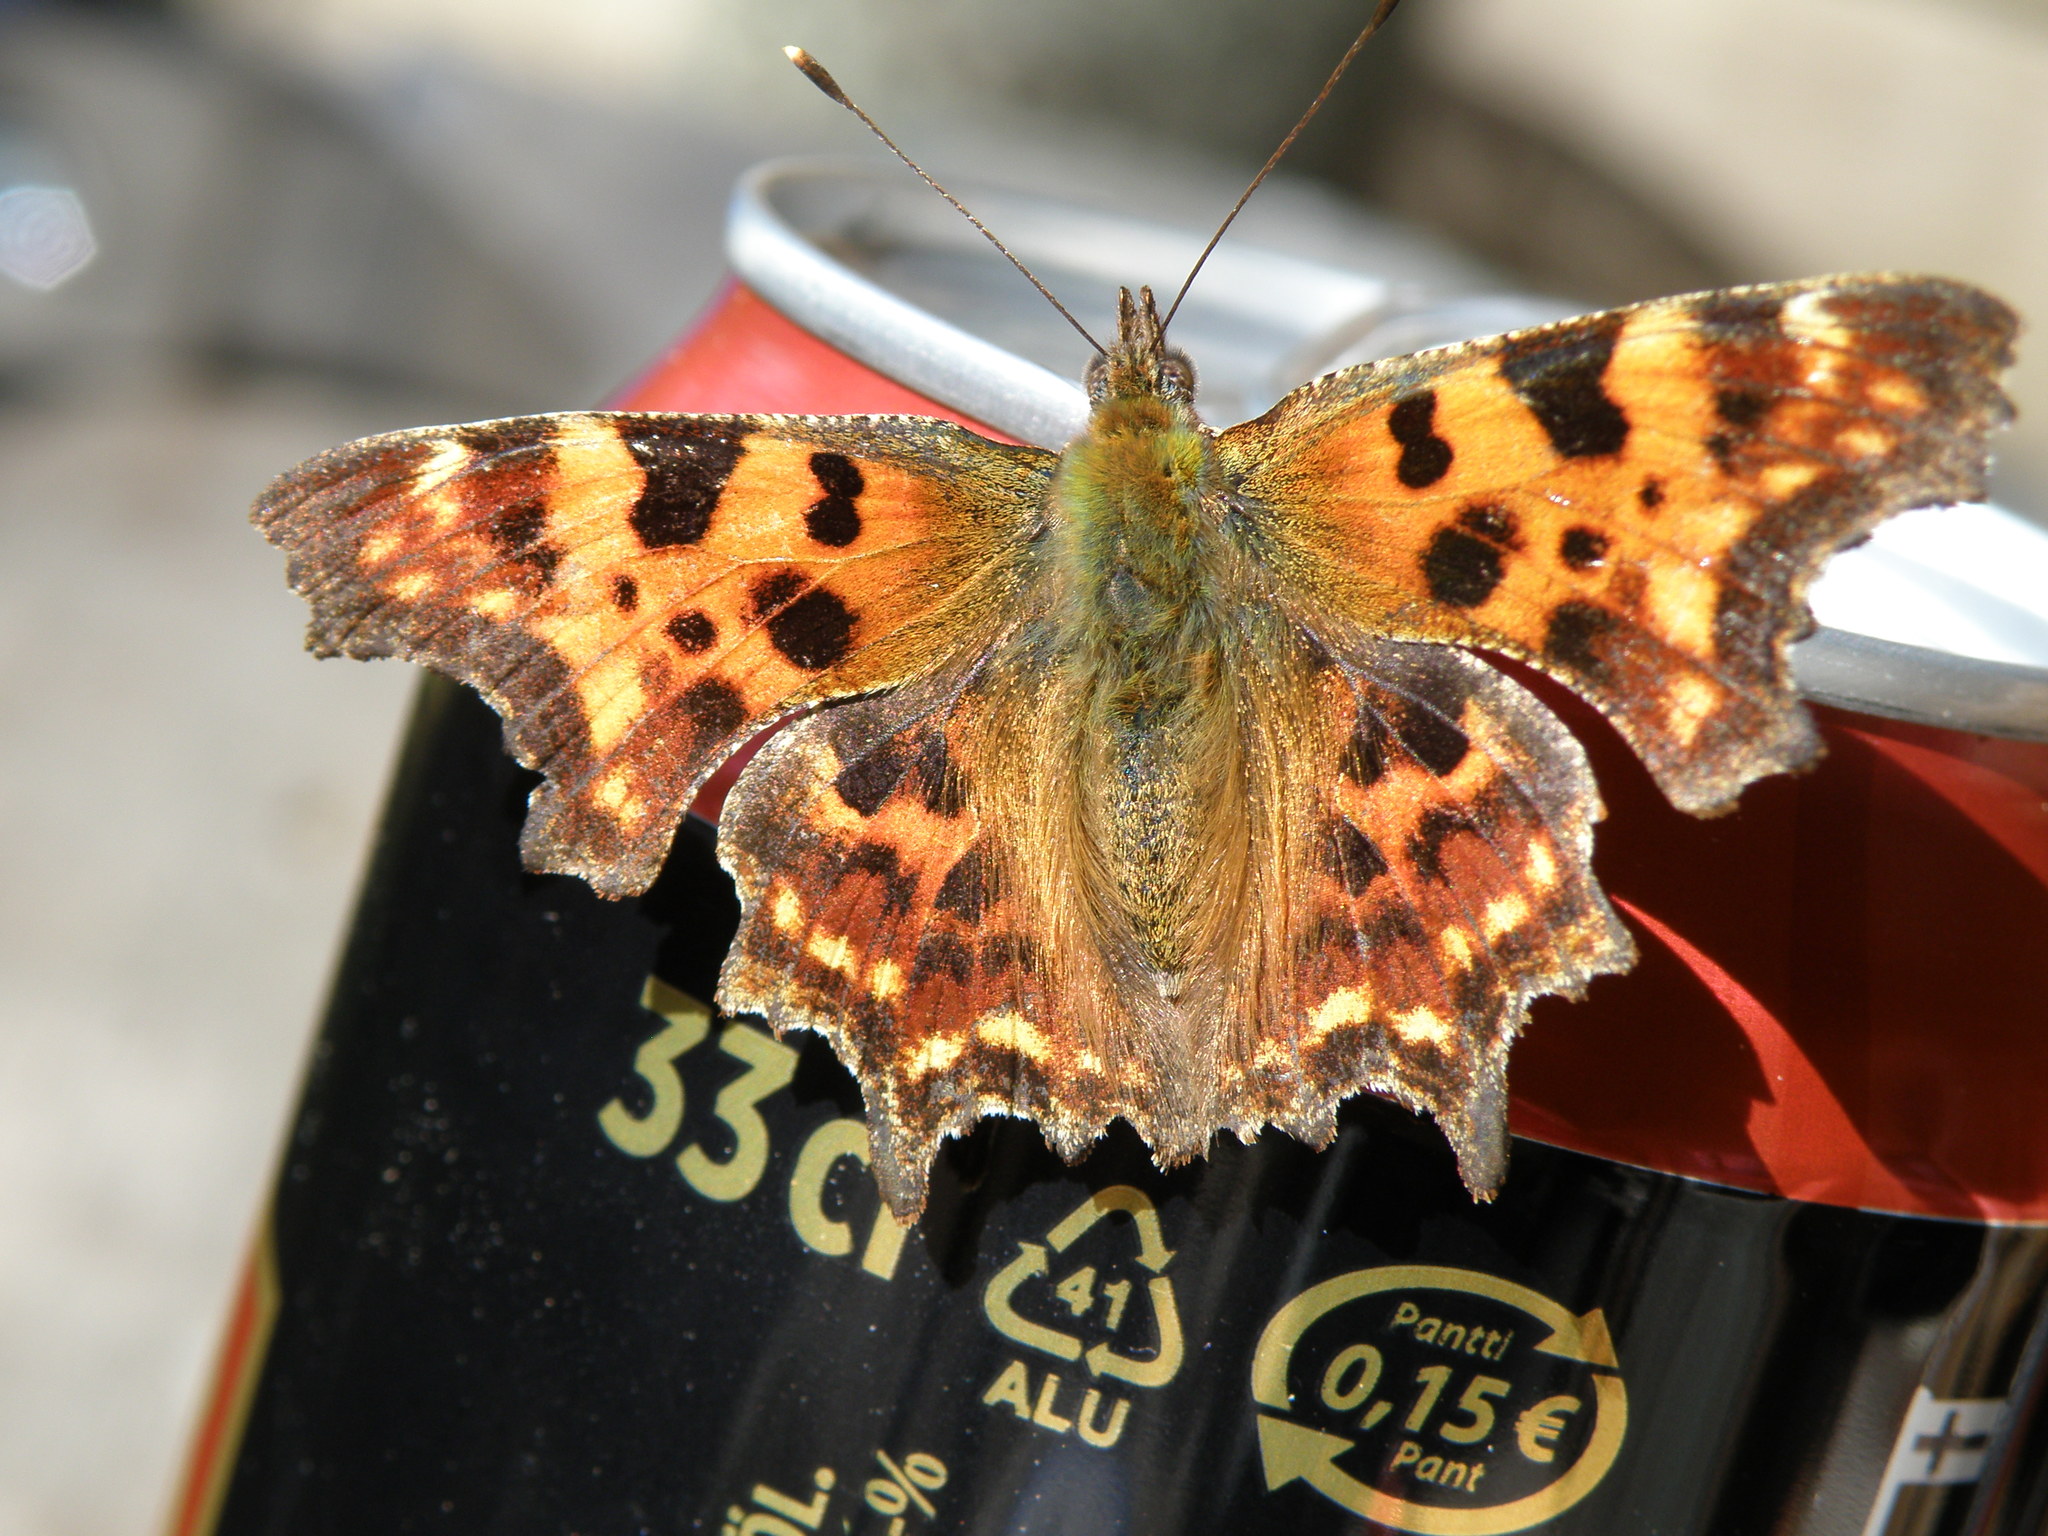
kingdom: Animalia
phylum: Arthropoda
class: Insecta
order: Lepidoptera
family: Nymphalidae
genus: Polygonia
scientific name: Polygonia c-album
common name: Comma
